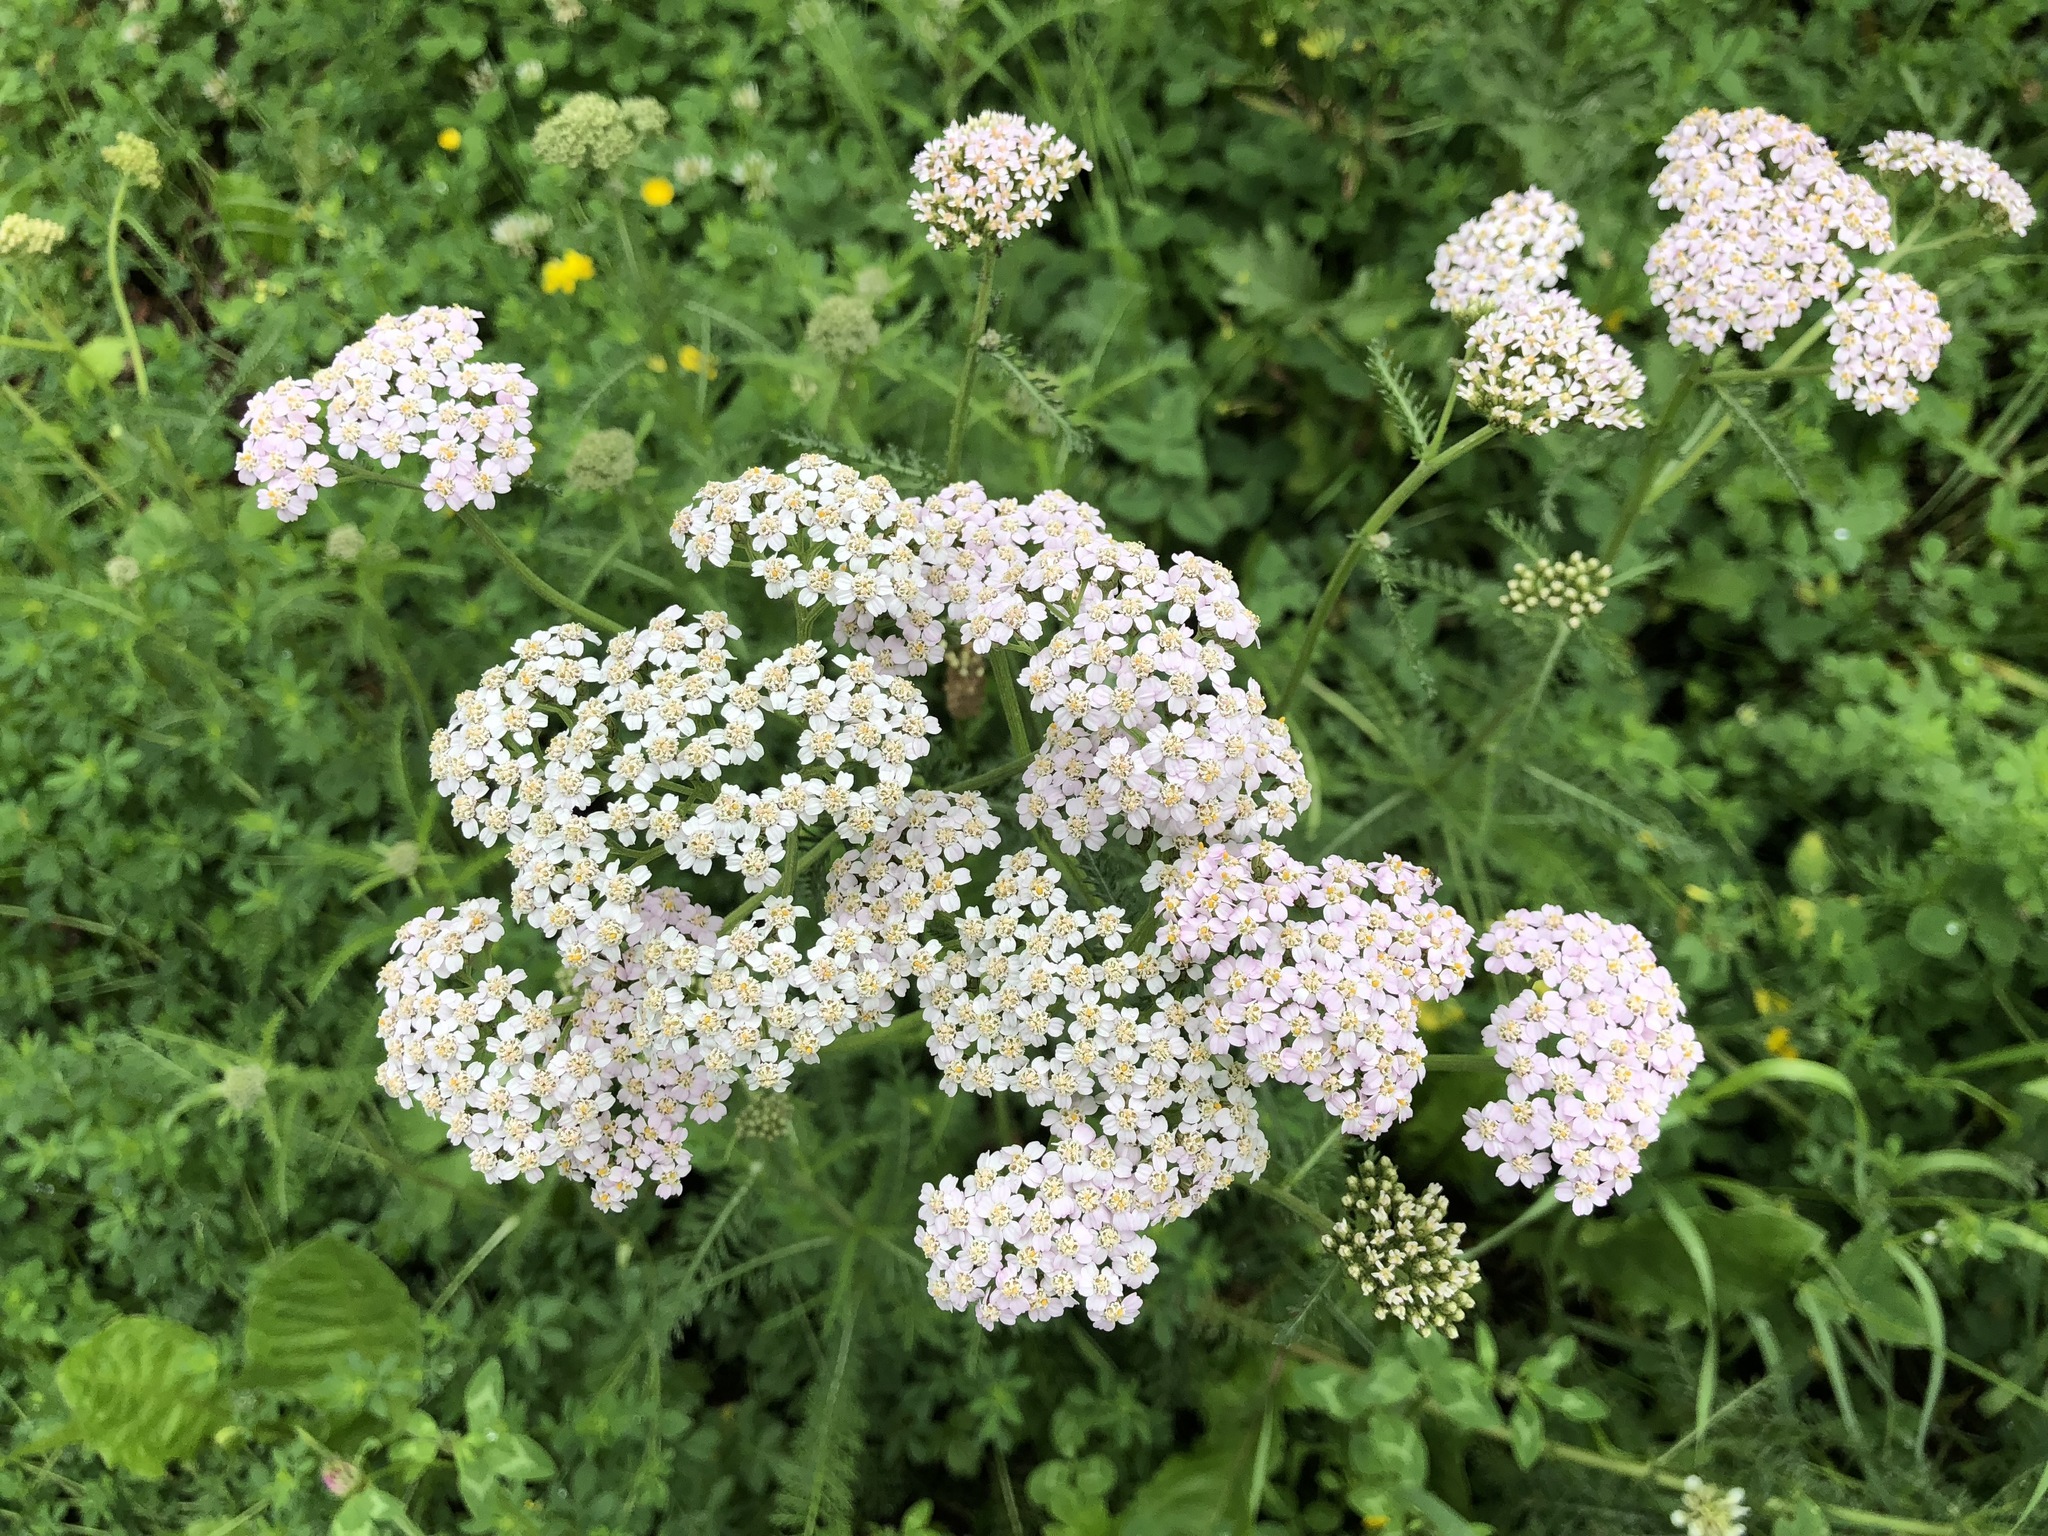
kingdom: Plantae
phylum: Tracheophyta
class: Magnoliopsida
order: Asterales
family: Asteraceae
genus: Achillea
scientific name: Achillea millefolium
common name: Yarrow
